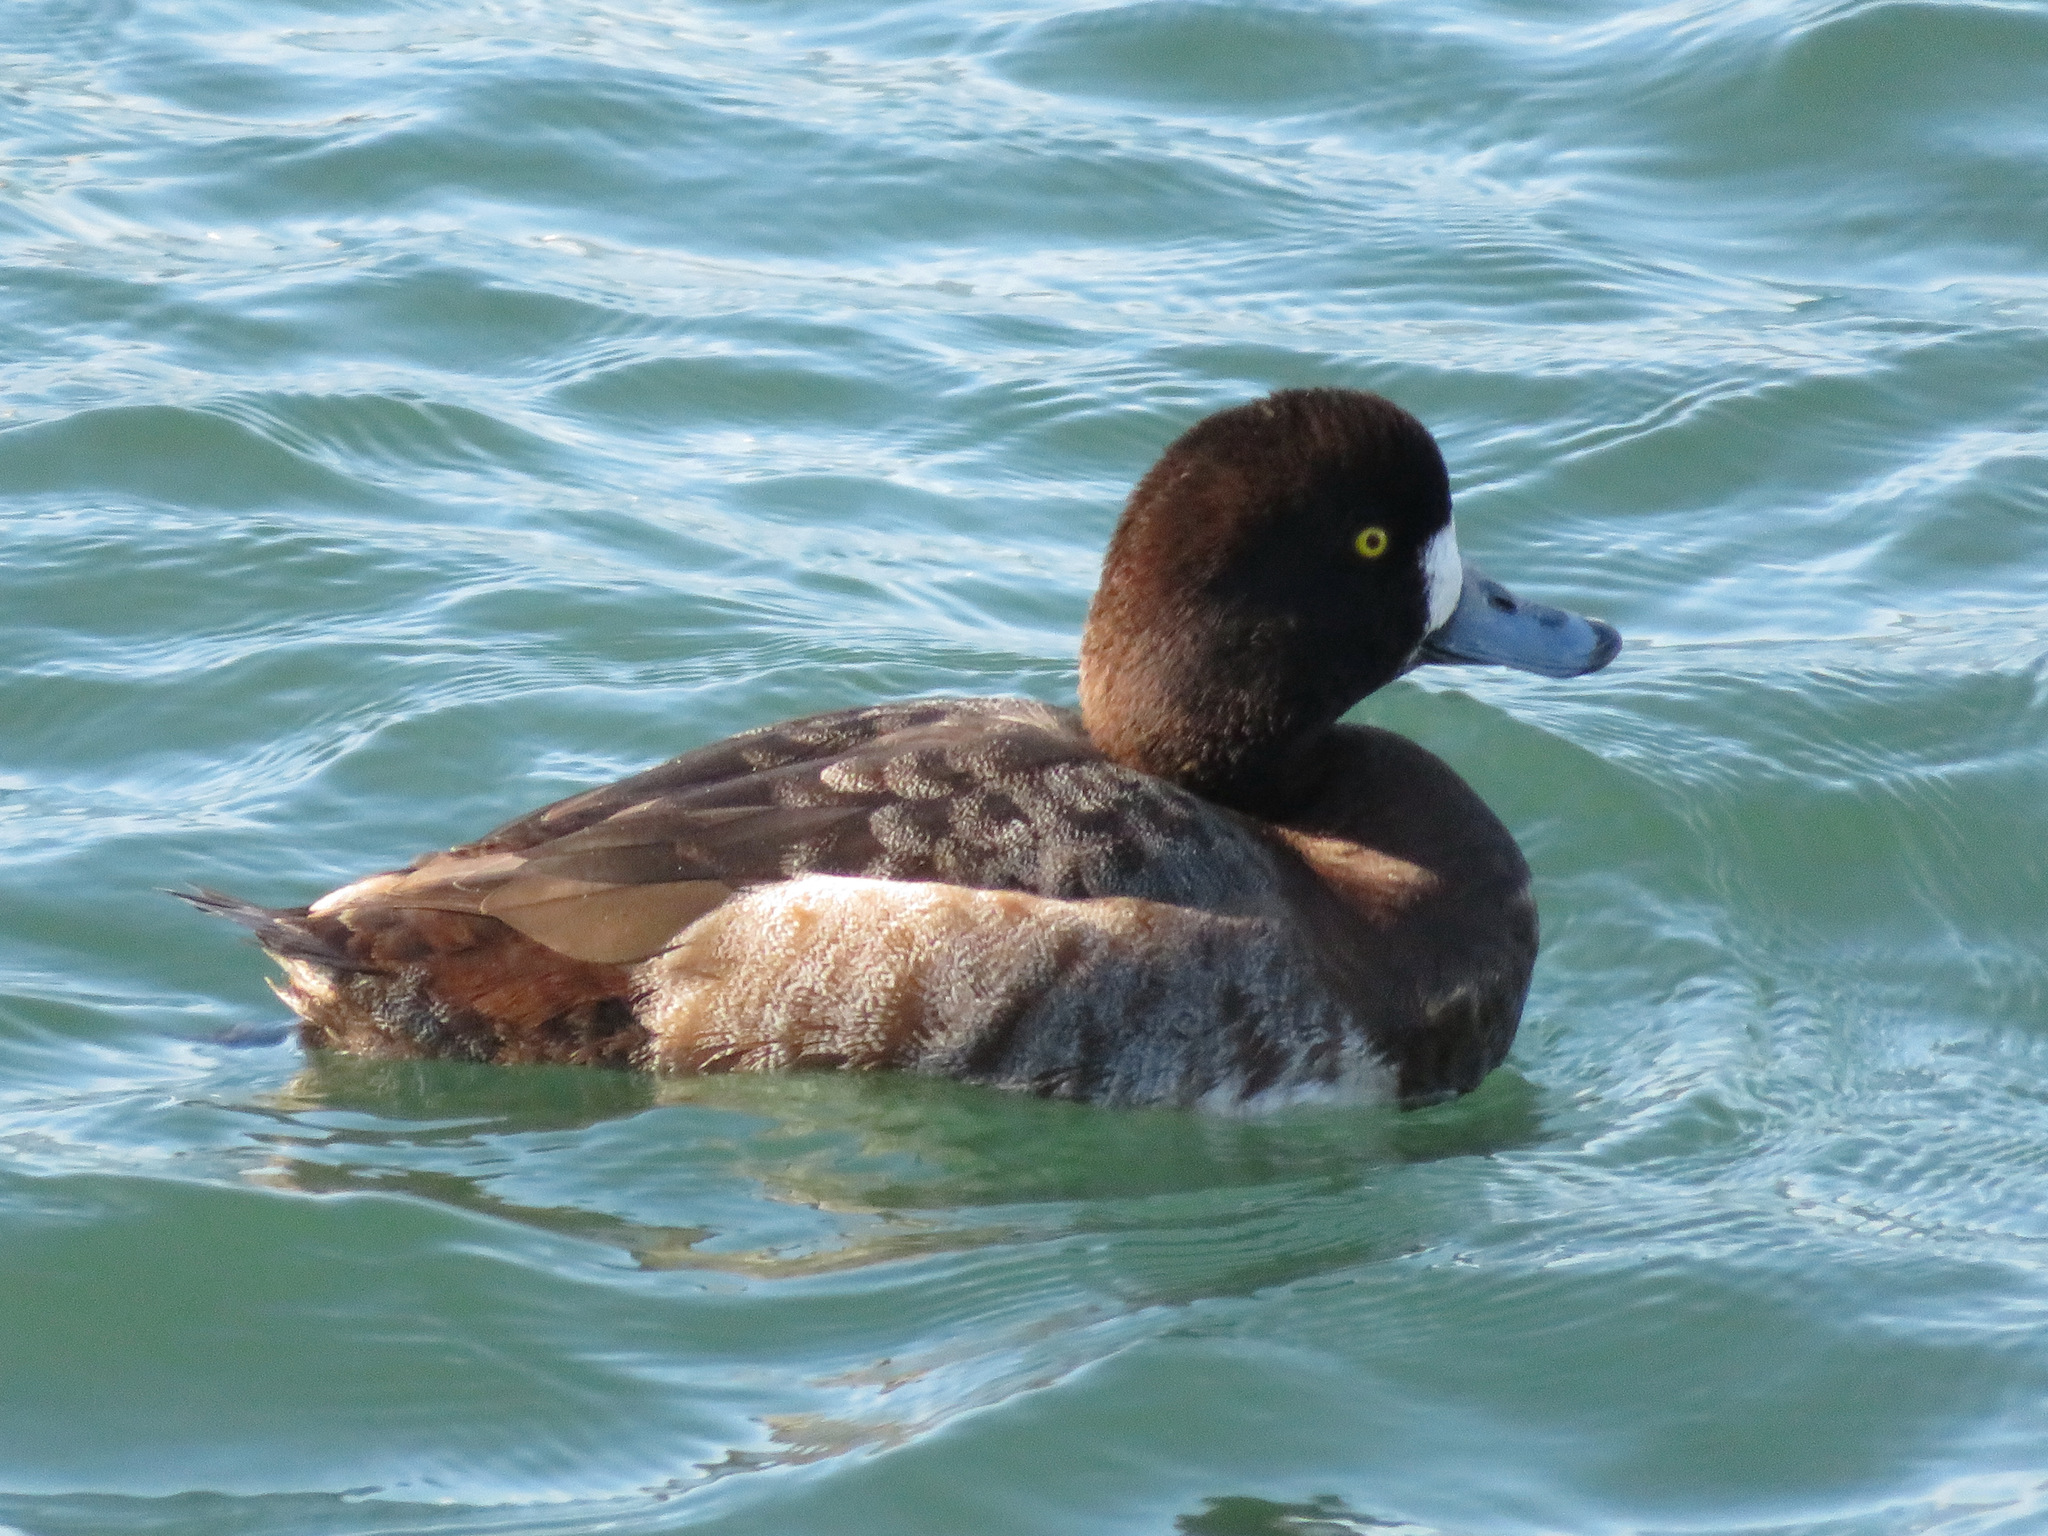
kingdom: Animalia
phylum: Chordata
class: Aves
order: Anseriformes
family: Anatidae
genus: Aythya
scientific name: Aythya marila
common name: Greater scaup
